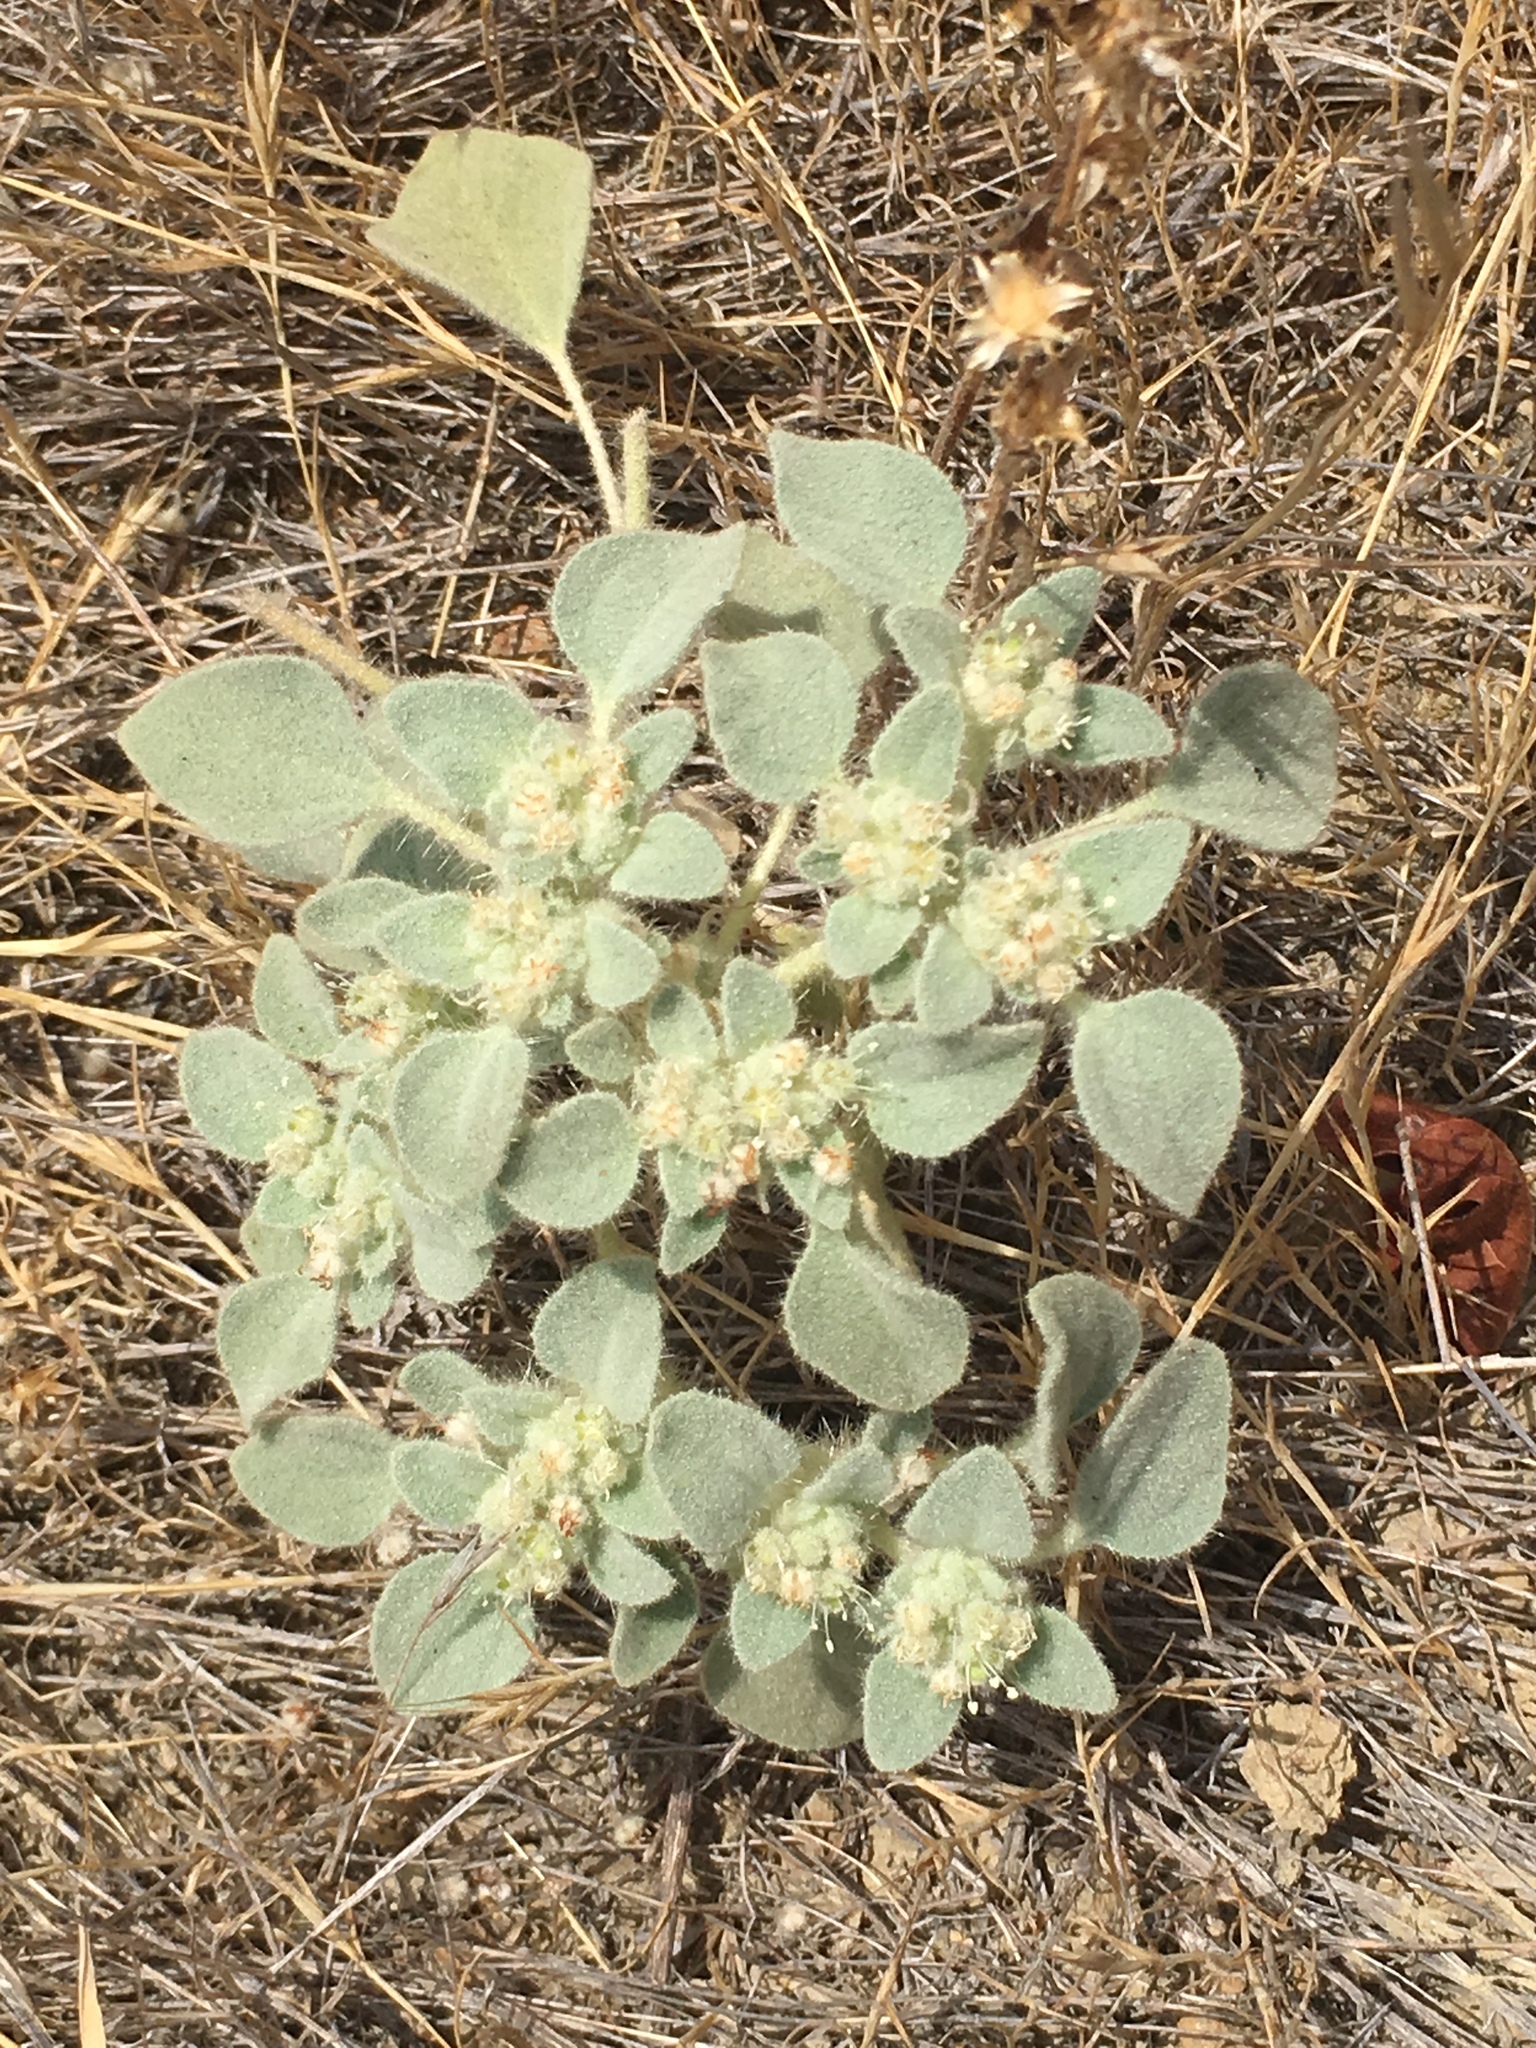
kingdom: Plantae
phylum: Tracheophyta
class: Magnoliopsida
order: Malpighiales
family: Euphorbiaceae
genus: Croton
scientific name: Croton setiger
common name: Dove weed
